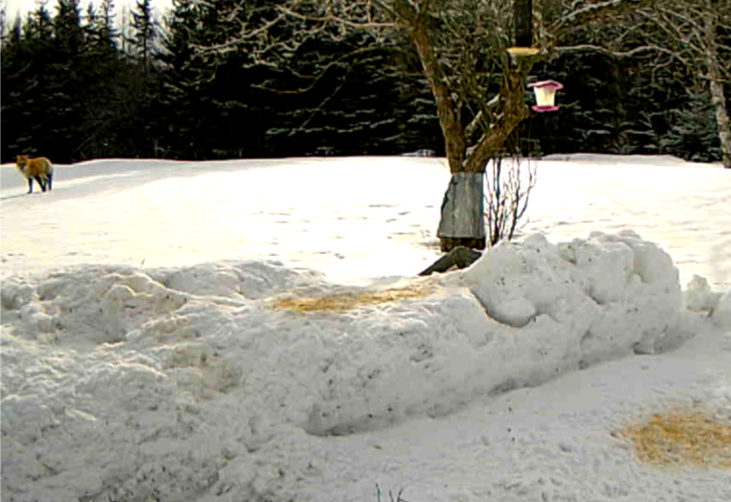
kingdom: Animalia
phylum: Chordata
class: Mammalia
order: Carnivora
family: Canidae
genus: Vulpes
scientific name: Vulpes vulpes
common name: Red fox
